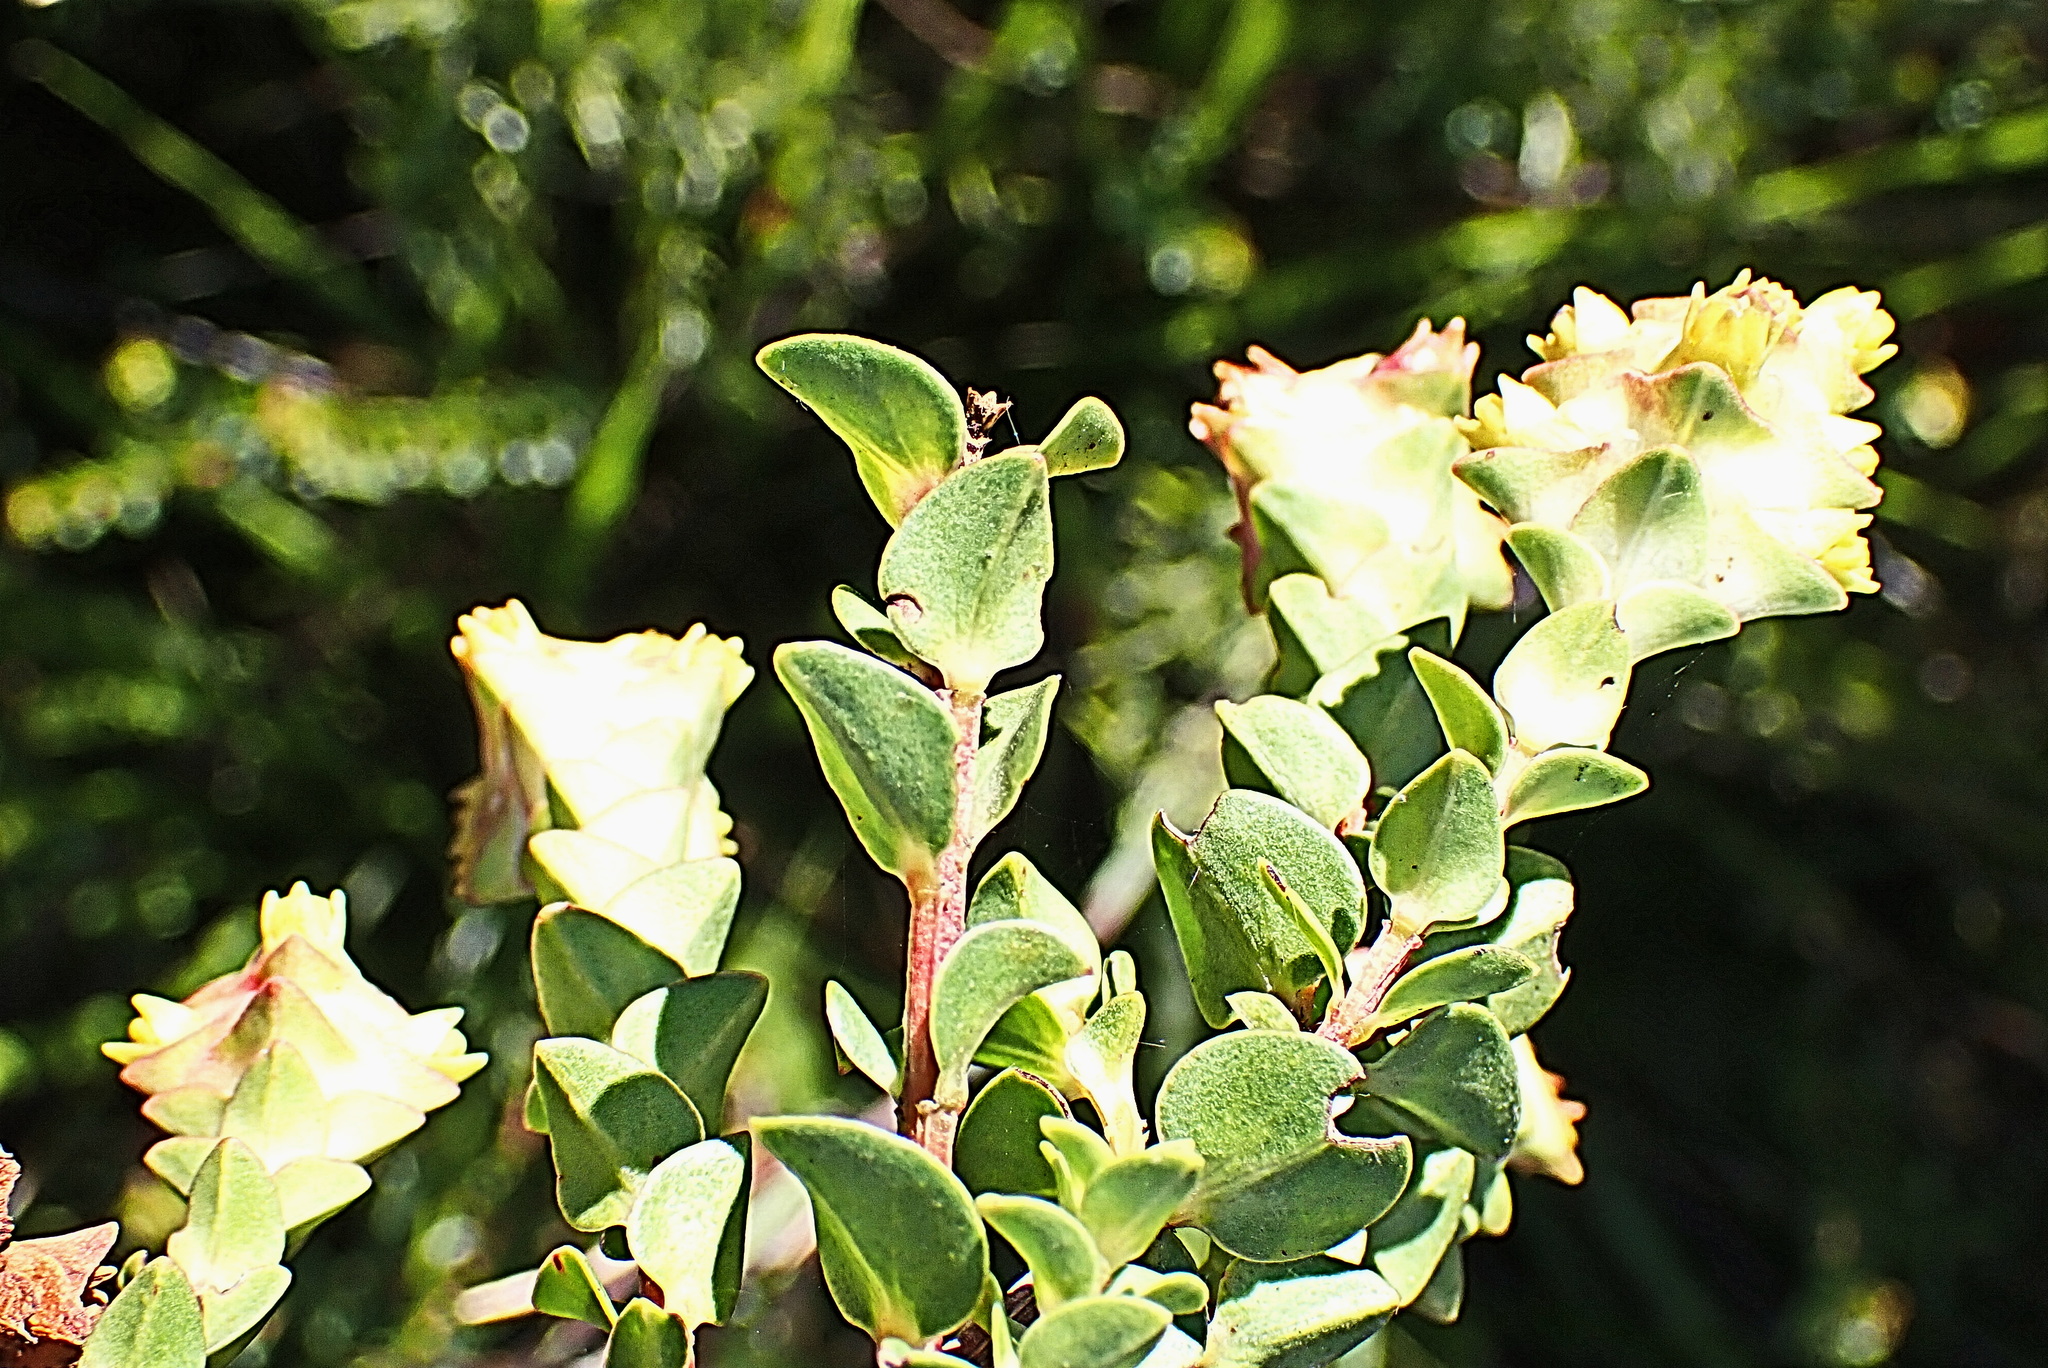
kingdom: Plantae
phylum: Tracheophyta
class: Magnoliopsida
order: Myrtales
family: Penaeaceae
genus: Penaea
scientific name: Penaea mucronata
